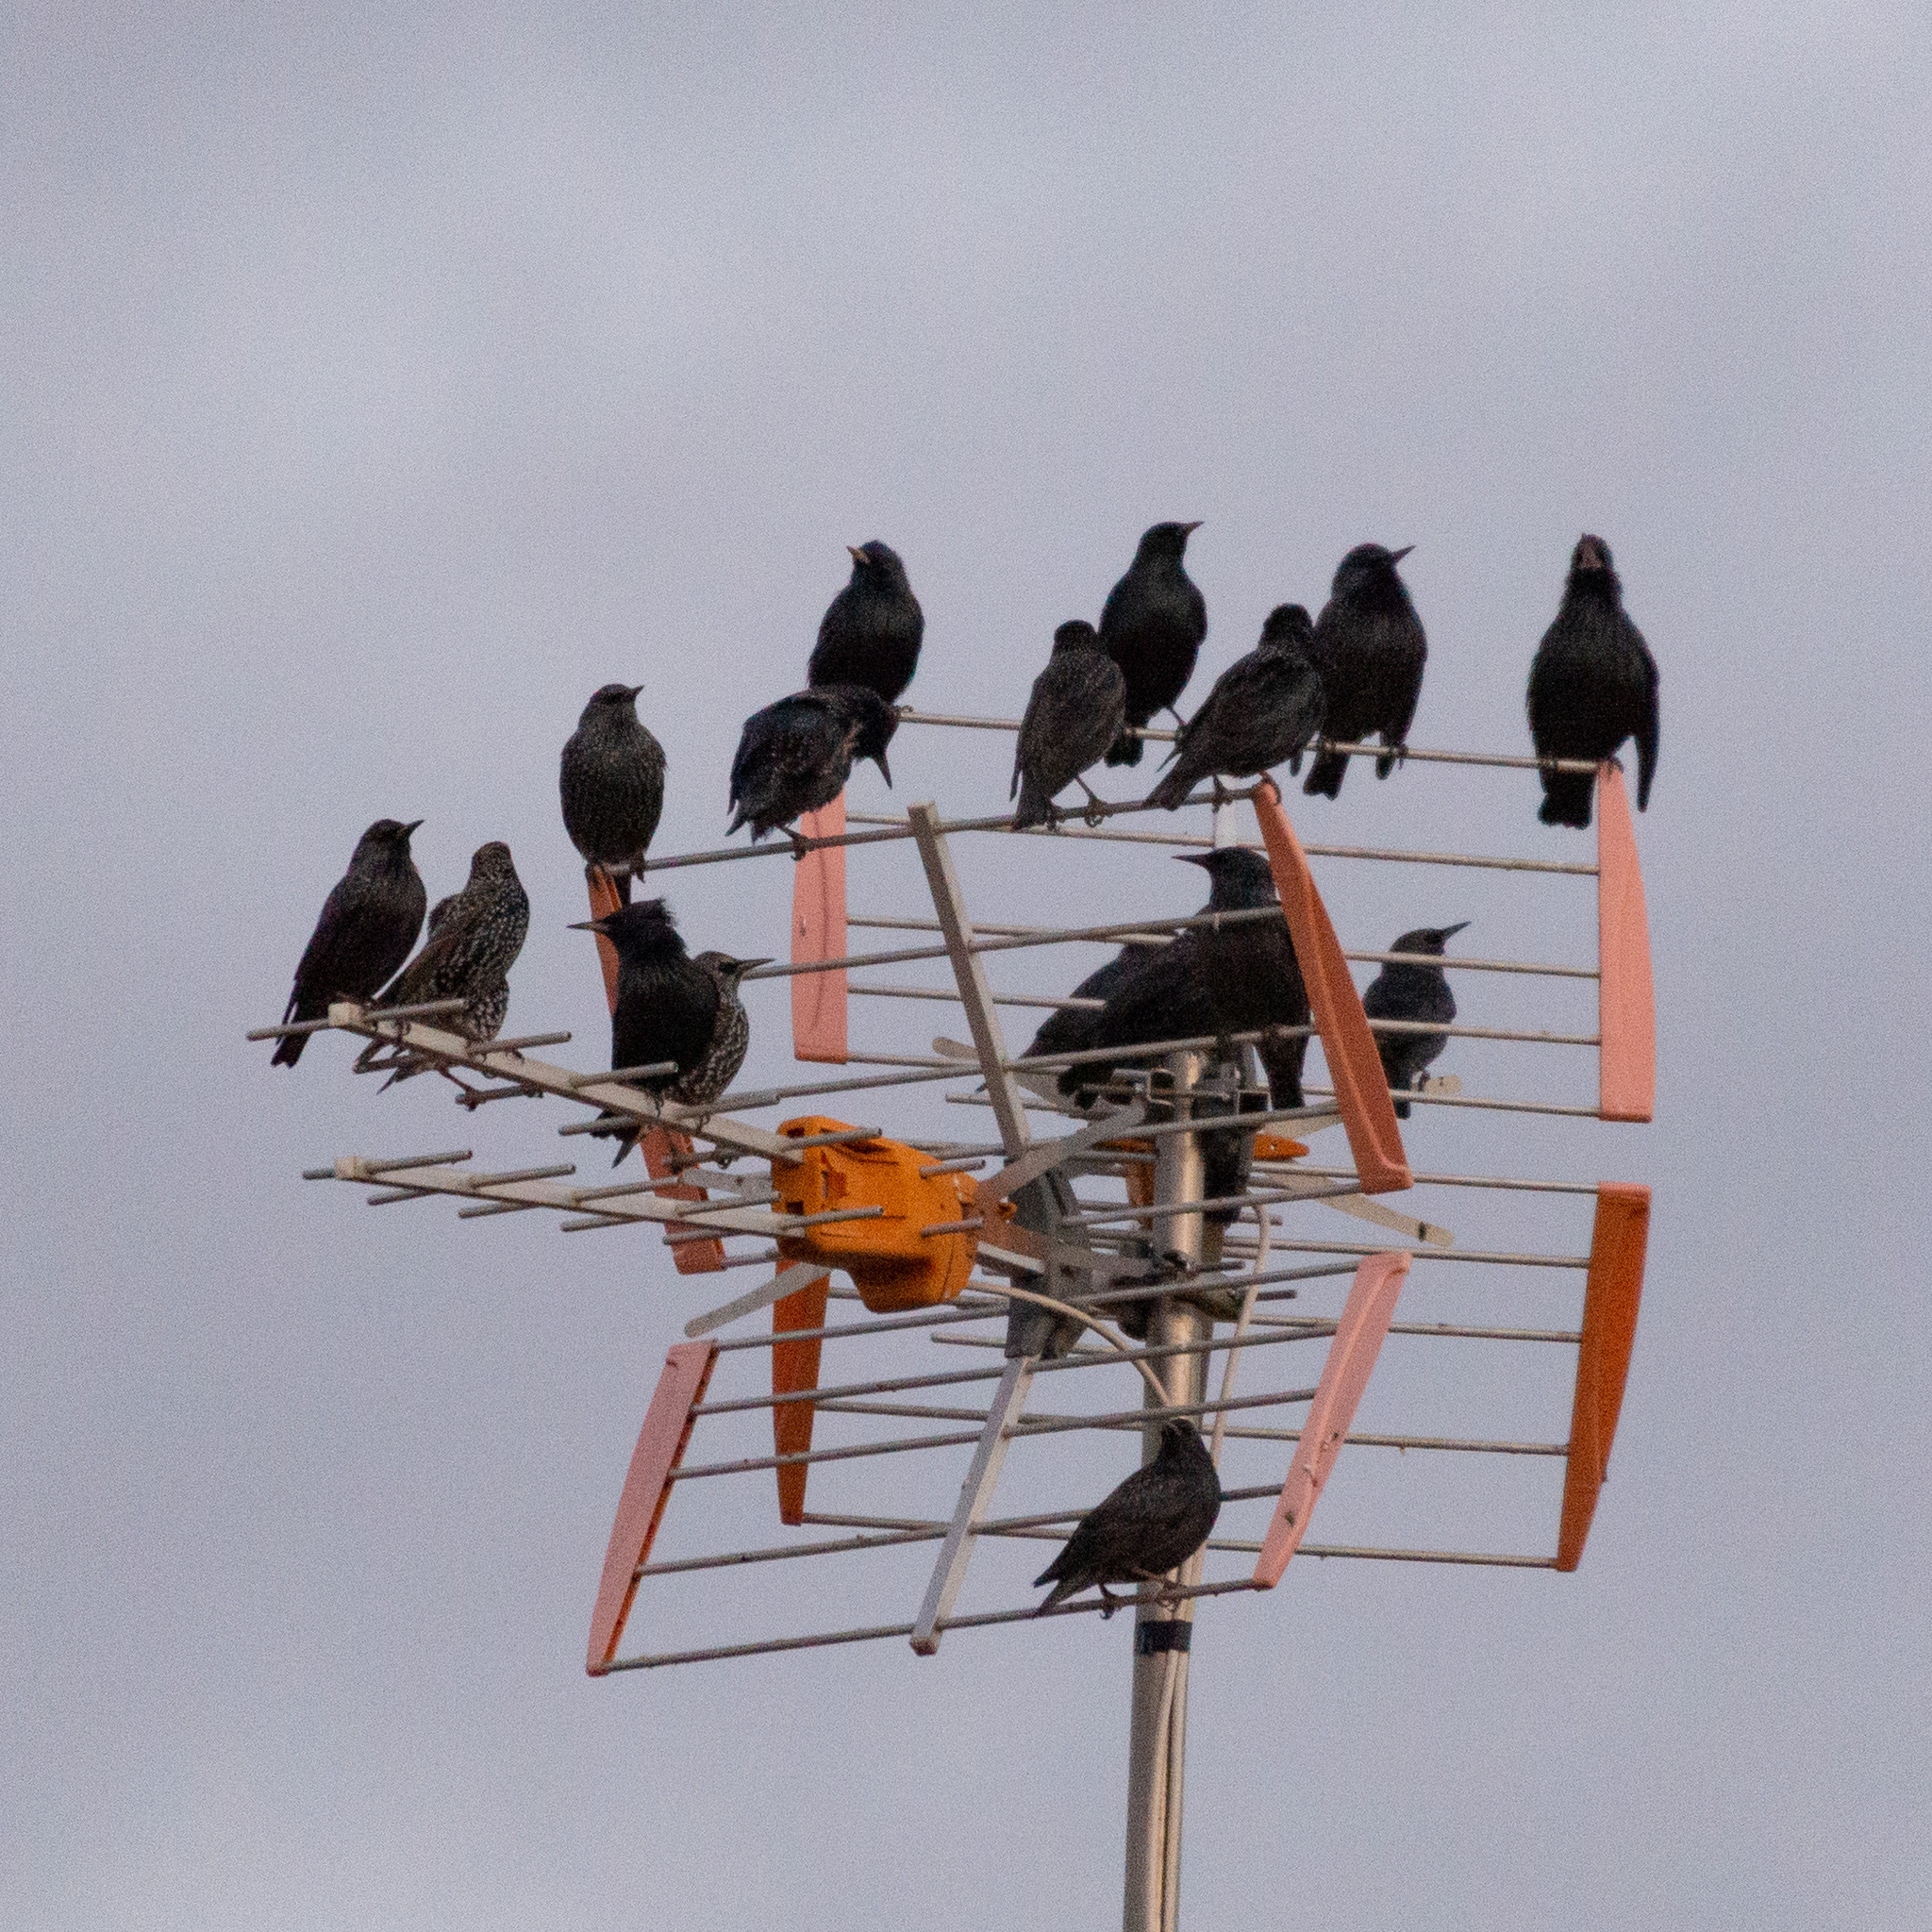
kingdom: Animalia
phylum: Chordata
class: Aves
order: Passeriformes
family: Sturnidae
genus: Sturnus
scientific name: Sturnus vulgaris
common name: Common starling
